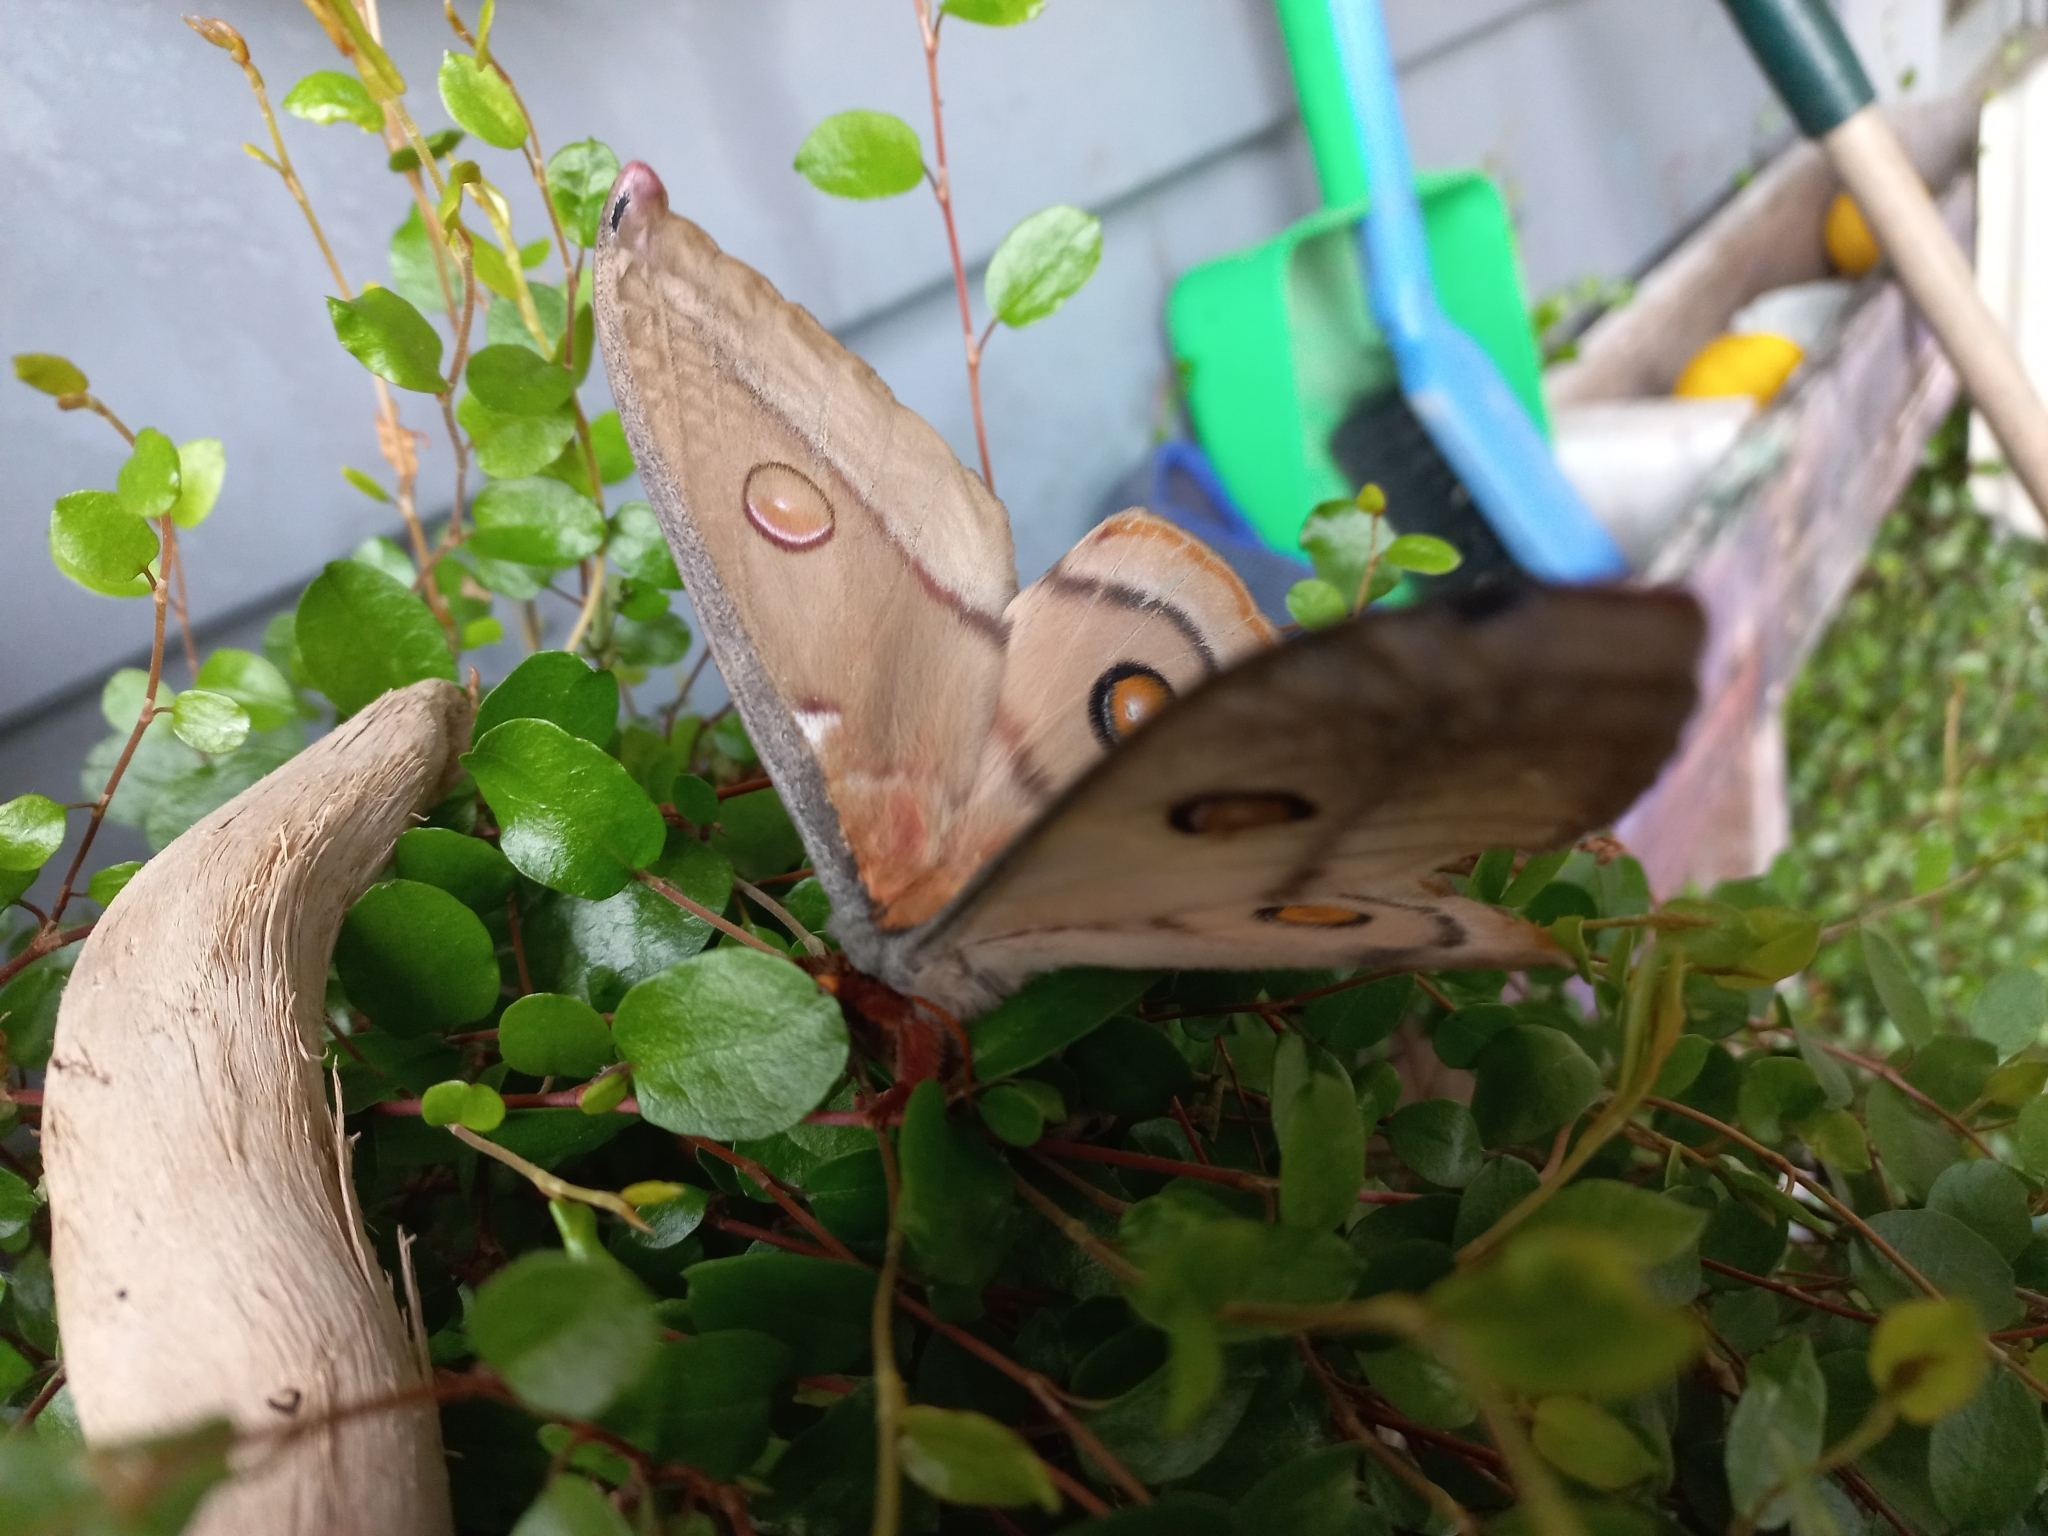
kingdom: Animalia
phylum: Arthropoda
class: Insecta
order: Lepidoptera
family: Saturniidae
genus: Opodiphthera
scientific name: Opodiphthera
